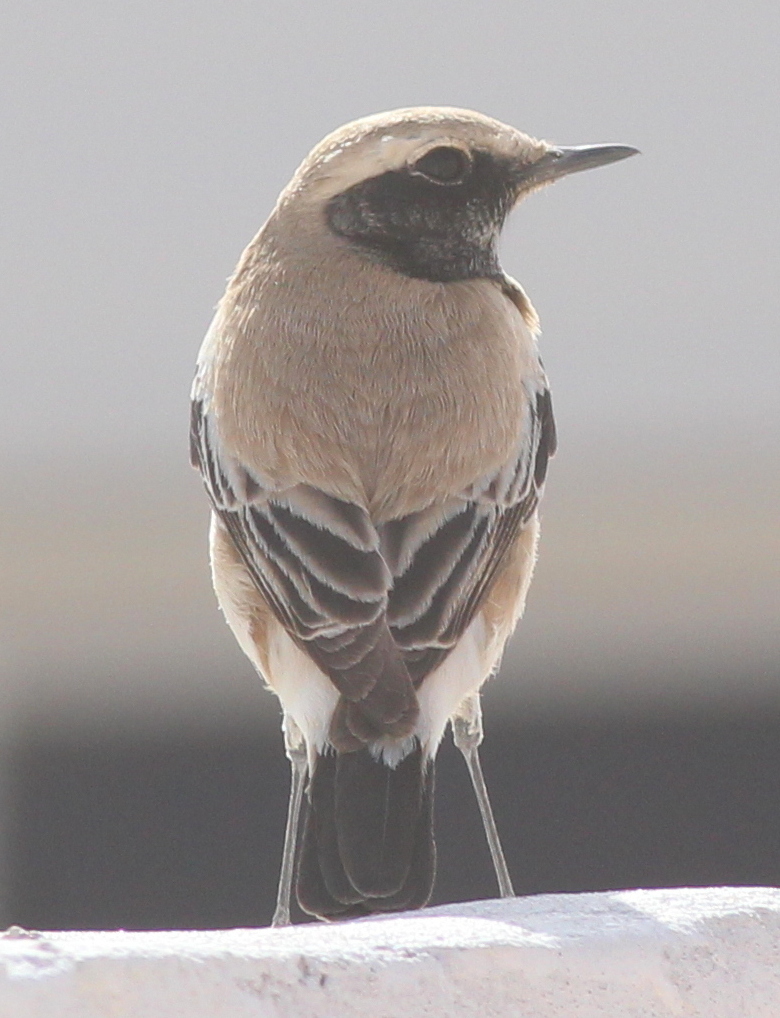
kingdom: Animalia
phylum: Chordata
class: Aves
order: Passeriformes
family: Muscicapidae
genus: Oenanthe
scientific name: Oenanthe deserti
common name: Desert wheatear
